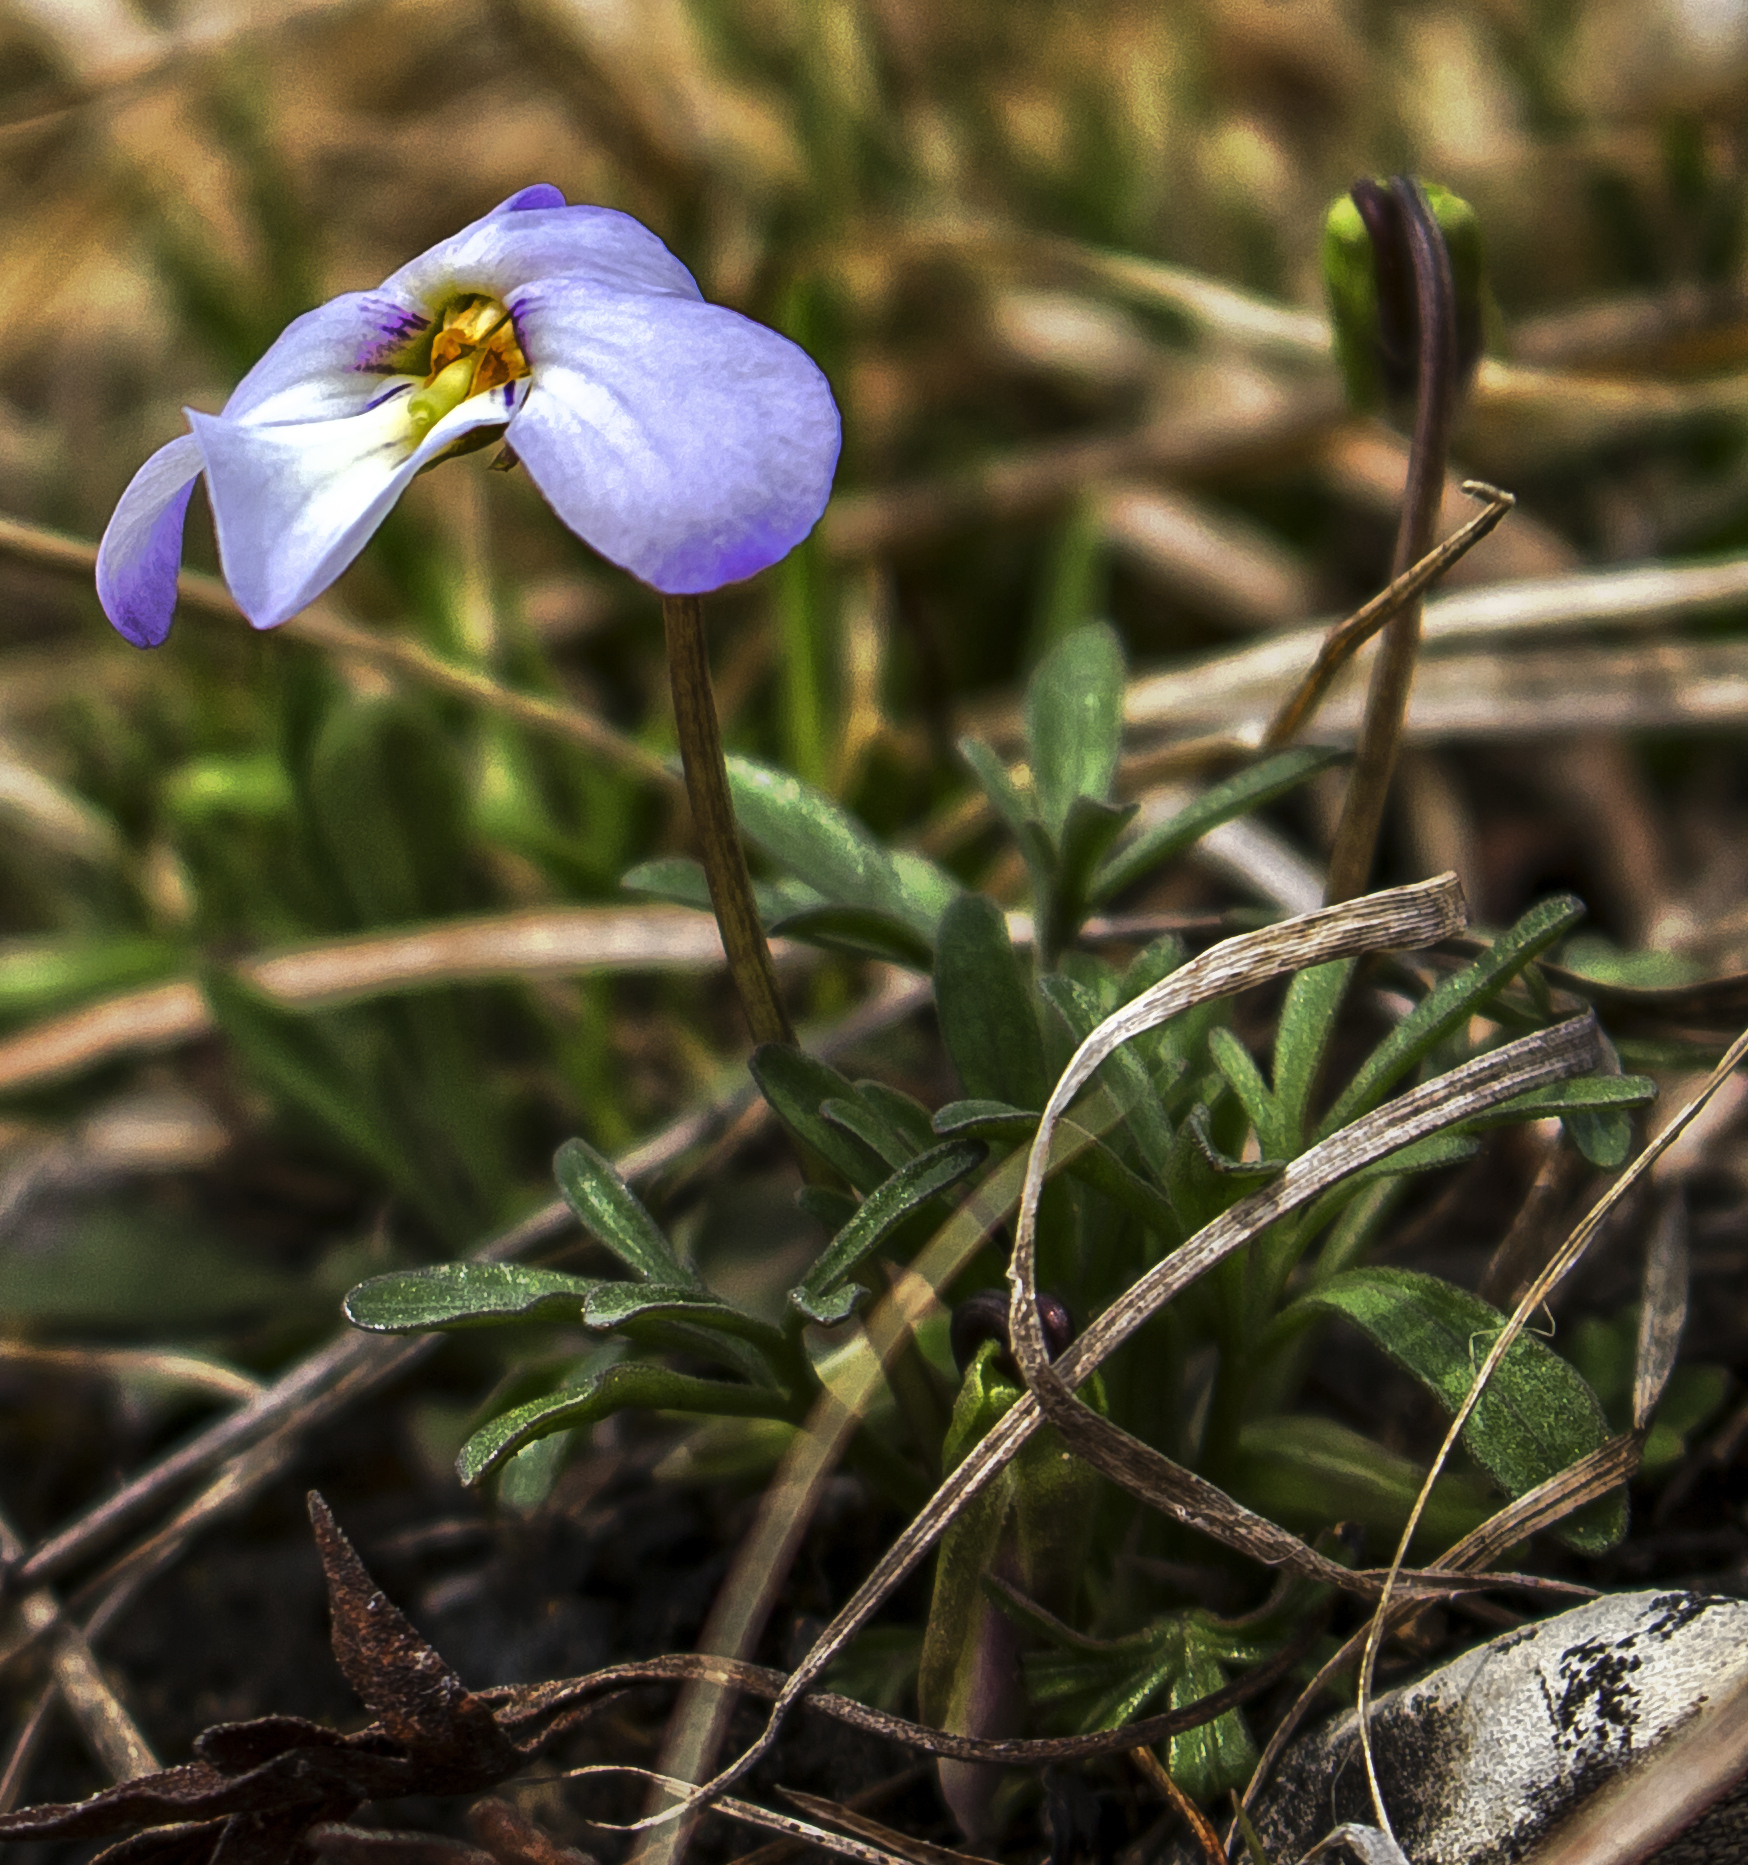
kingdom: Plantae
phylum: Tracheophyta
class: Magnoliopsida
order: Malpighiales
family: Violaceae
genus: Viola
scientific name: Viola pedata
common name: Pansy violet
